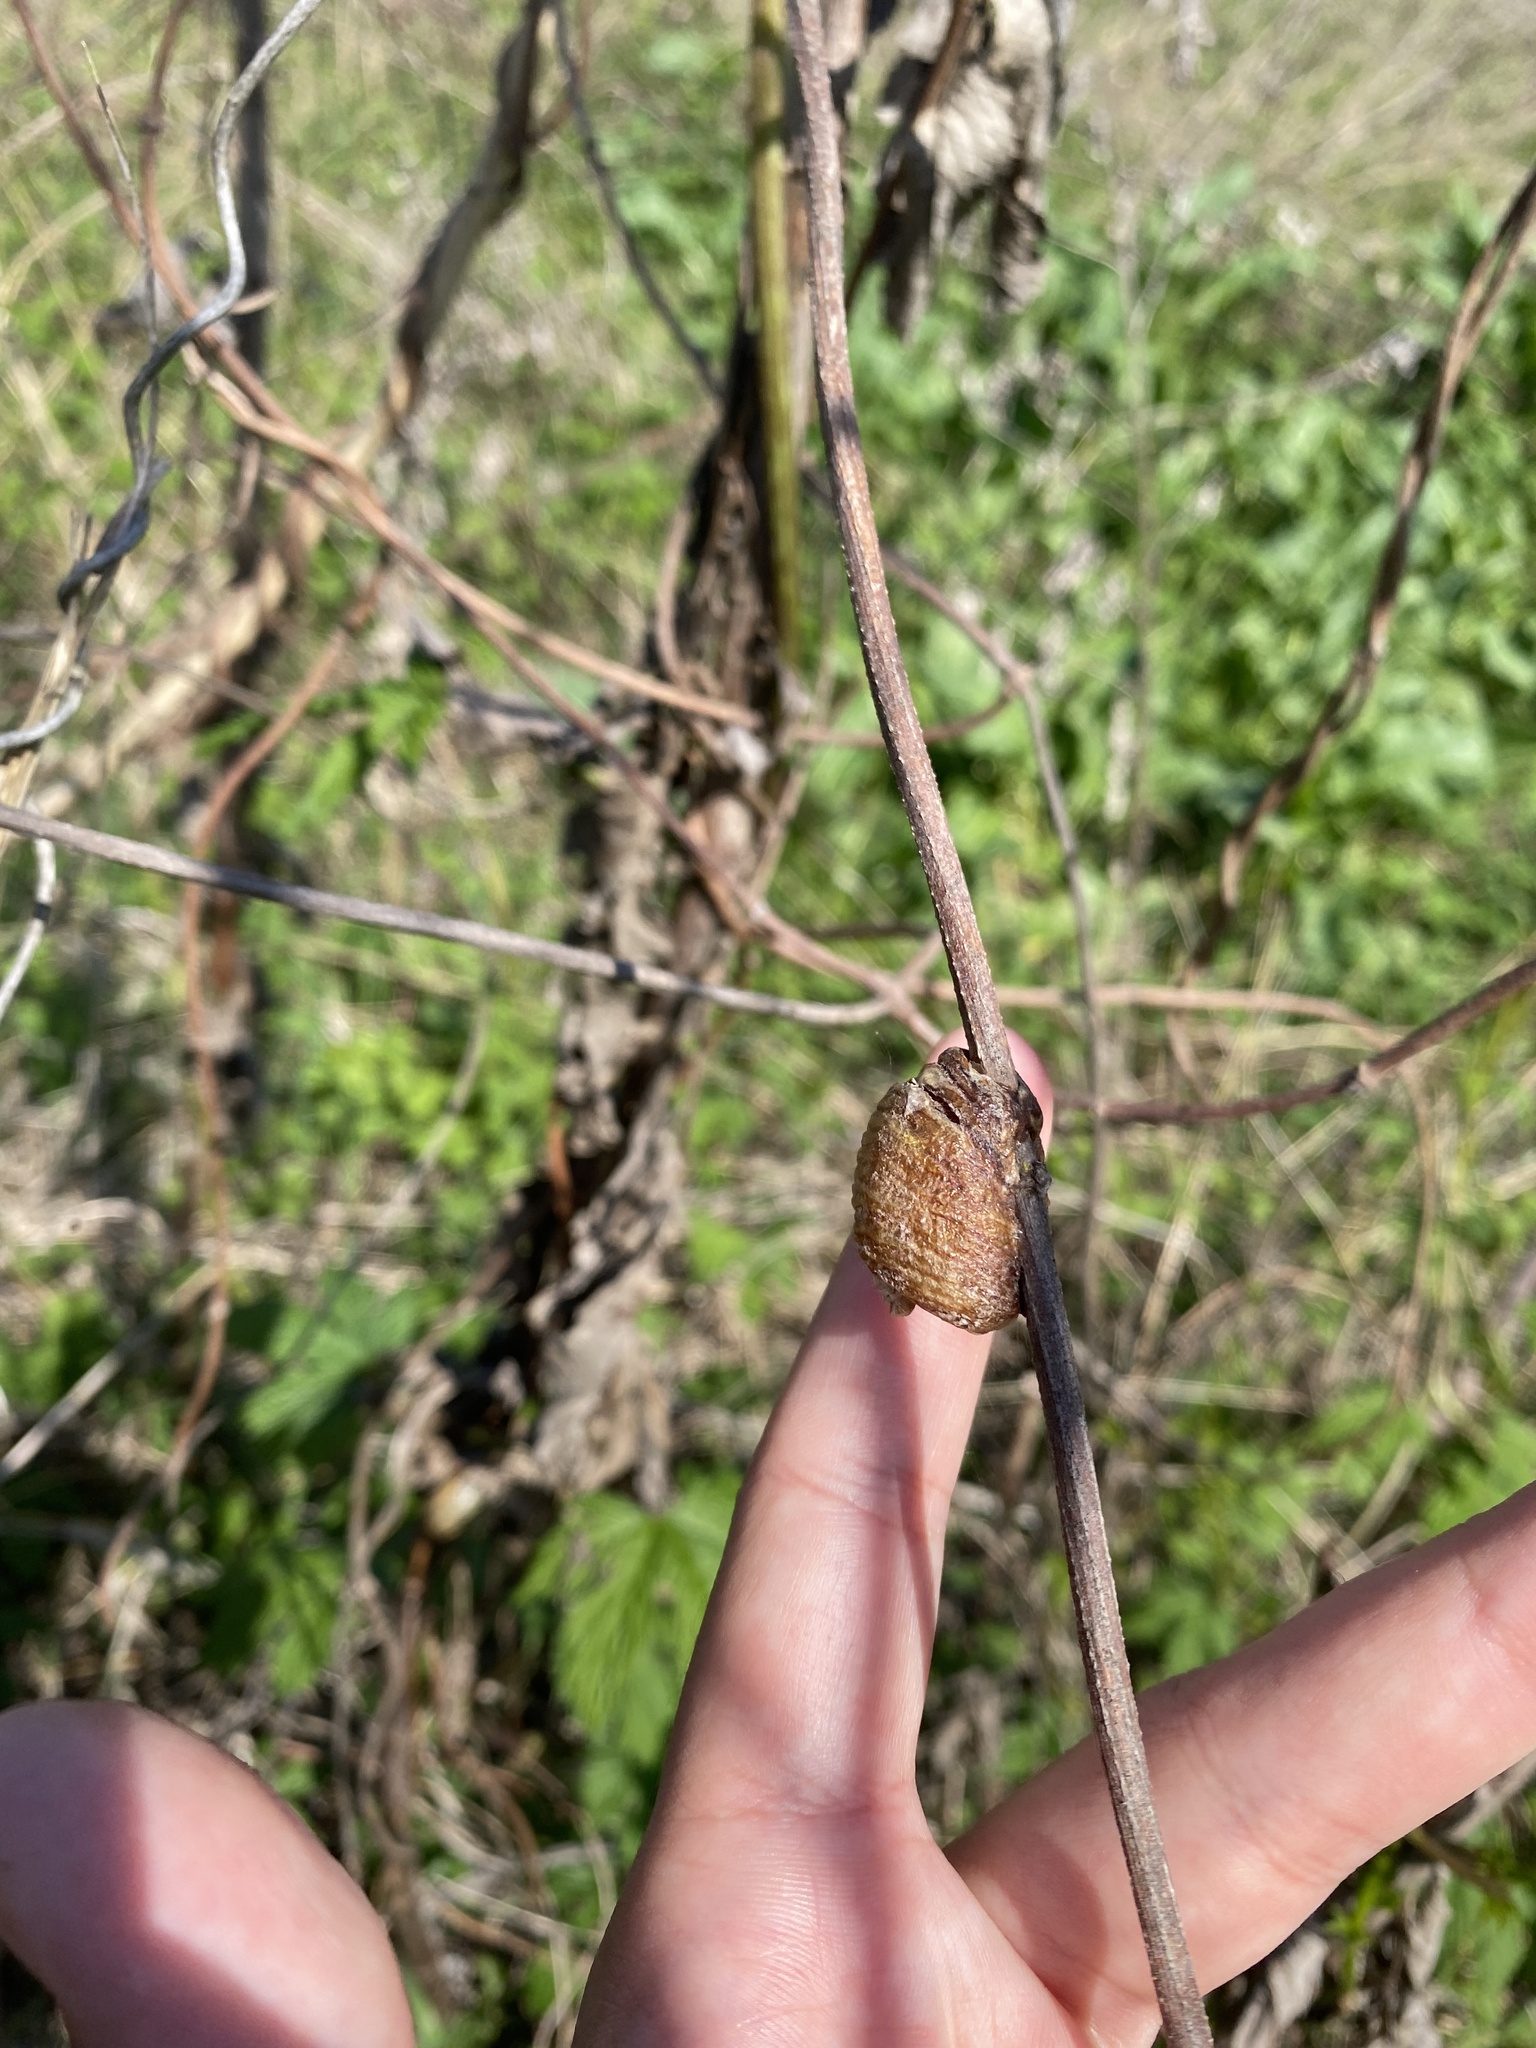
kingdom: Animalia
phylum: Arthropoda
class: Insecta
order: Mantodea
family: Mantidae
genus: Hierodula
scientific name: Hierodula transcaucasica
